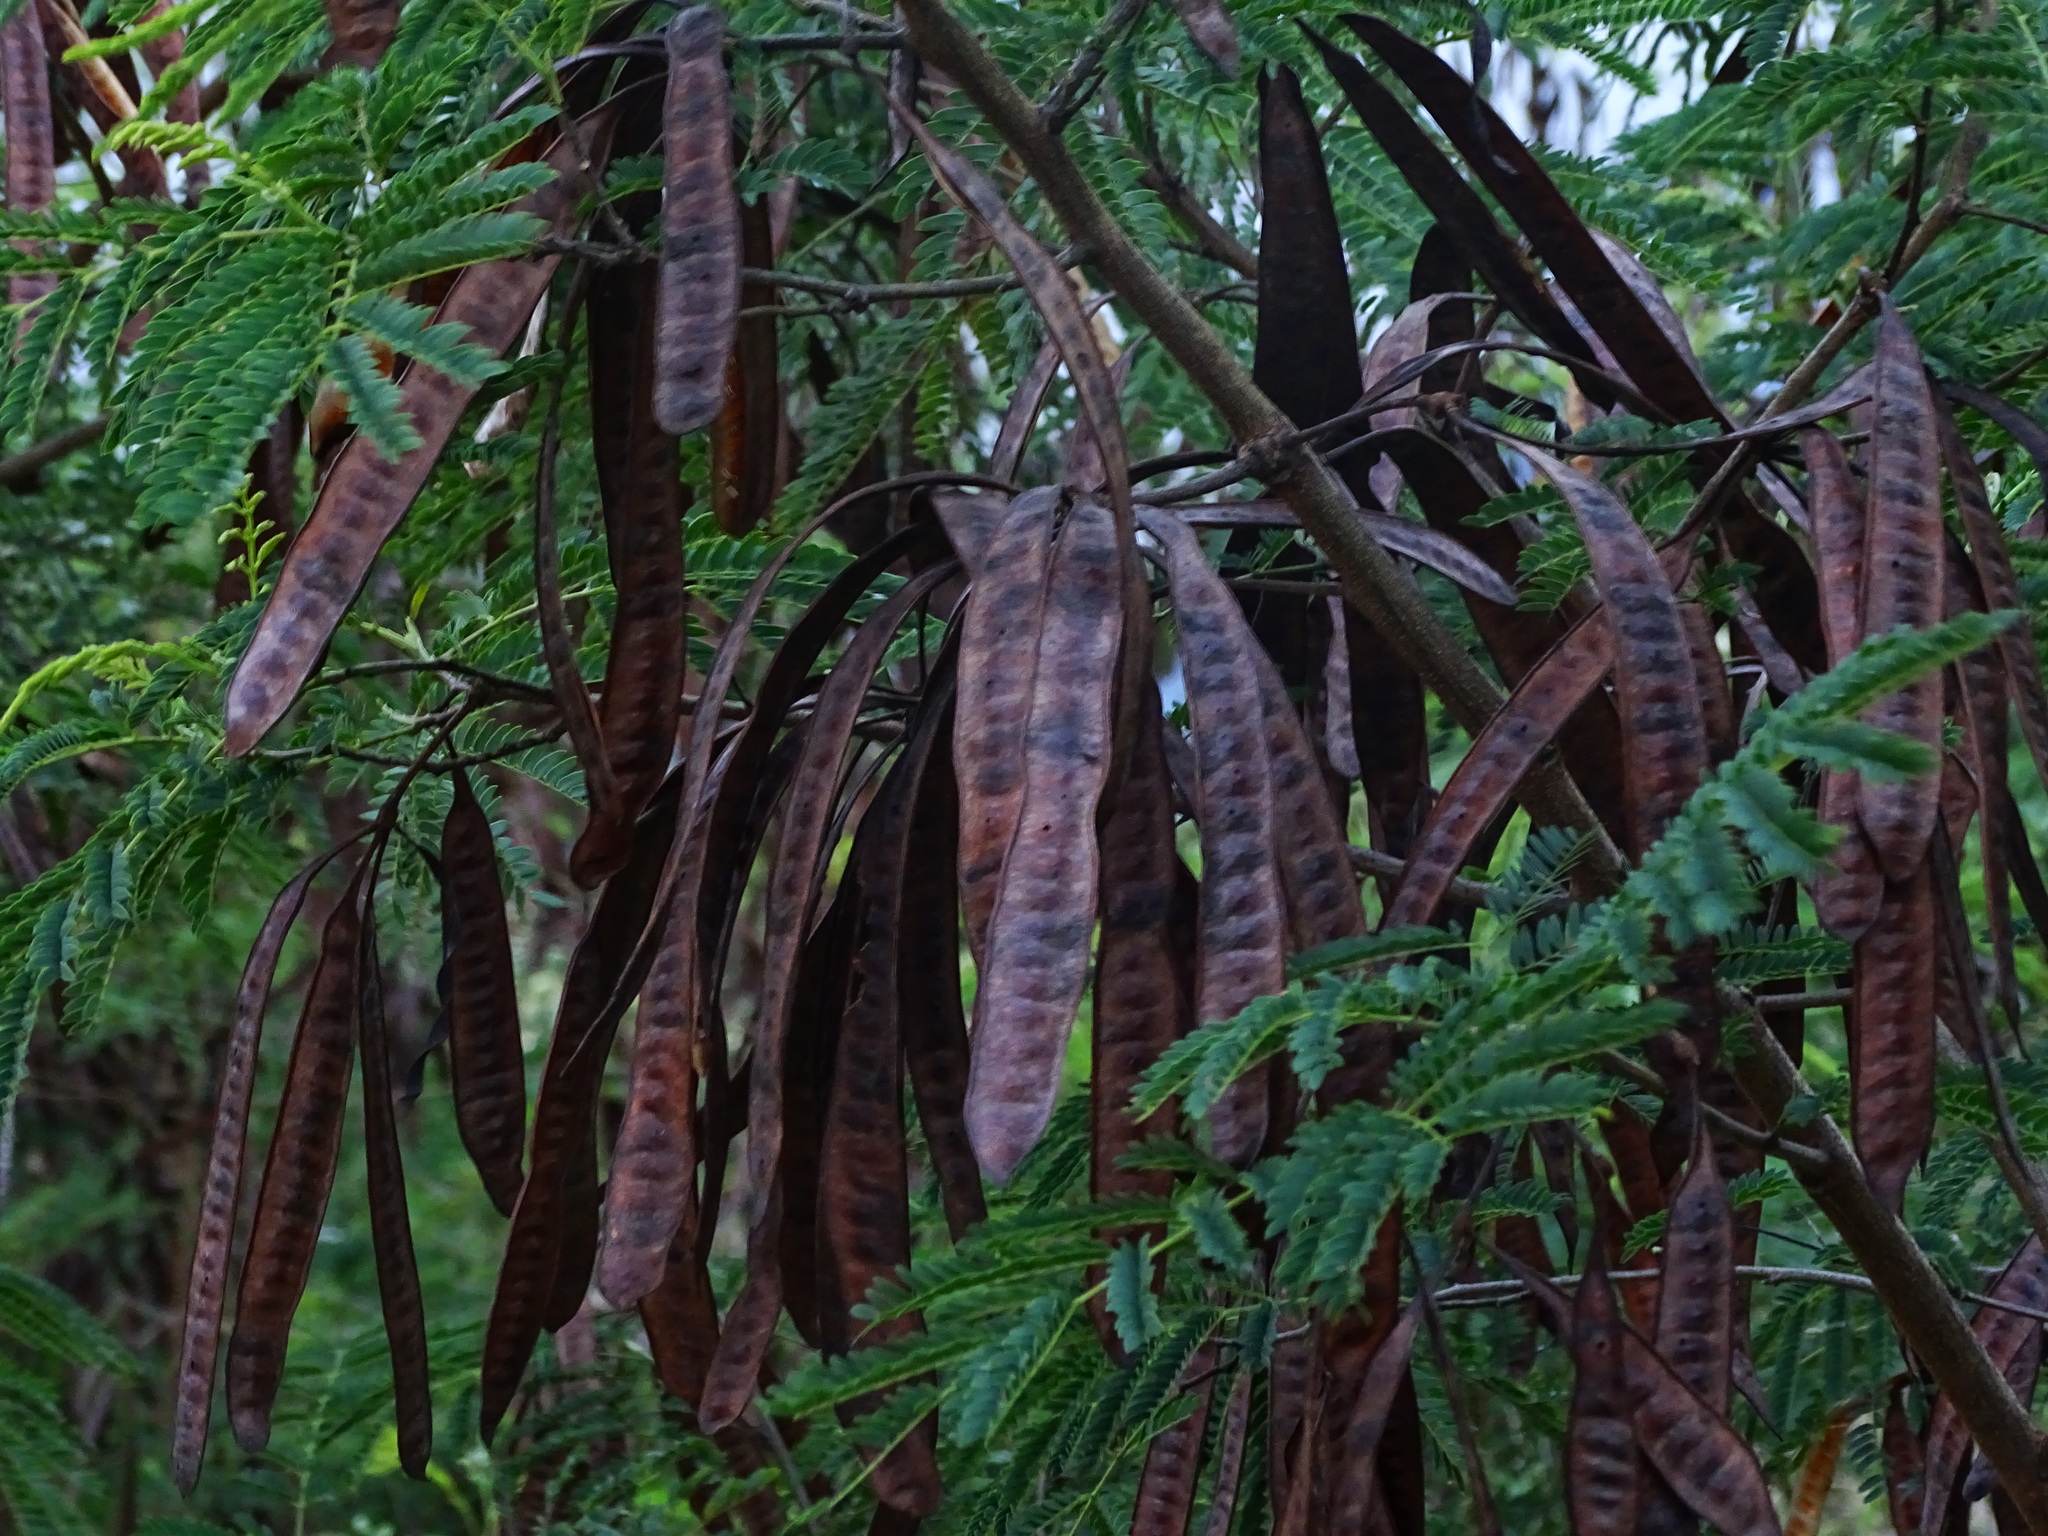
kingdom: Plantae
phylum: Tracheophyta
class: Magnoliopsida
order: Fabales
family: Fabaceae
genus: Leucaena
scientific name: Leucaena leucocephala
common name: White leadtree
